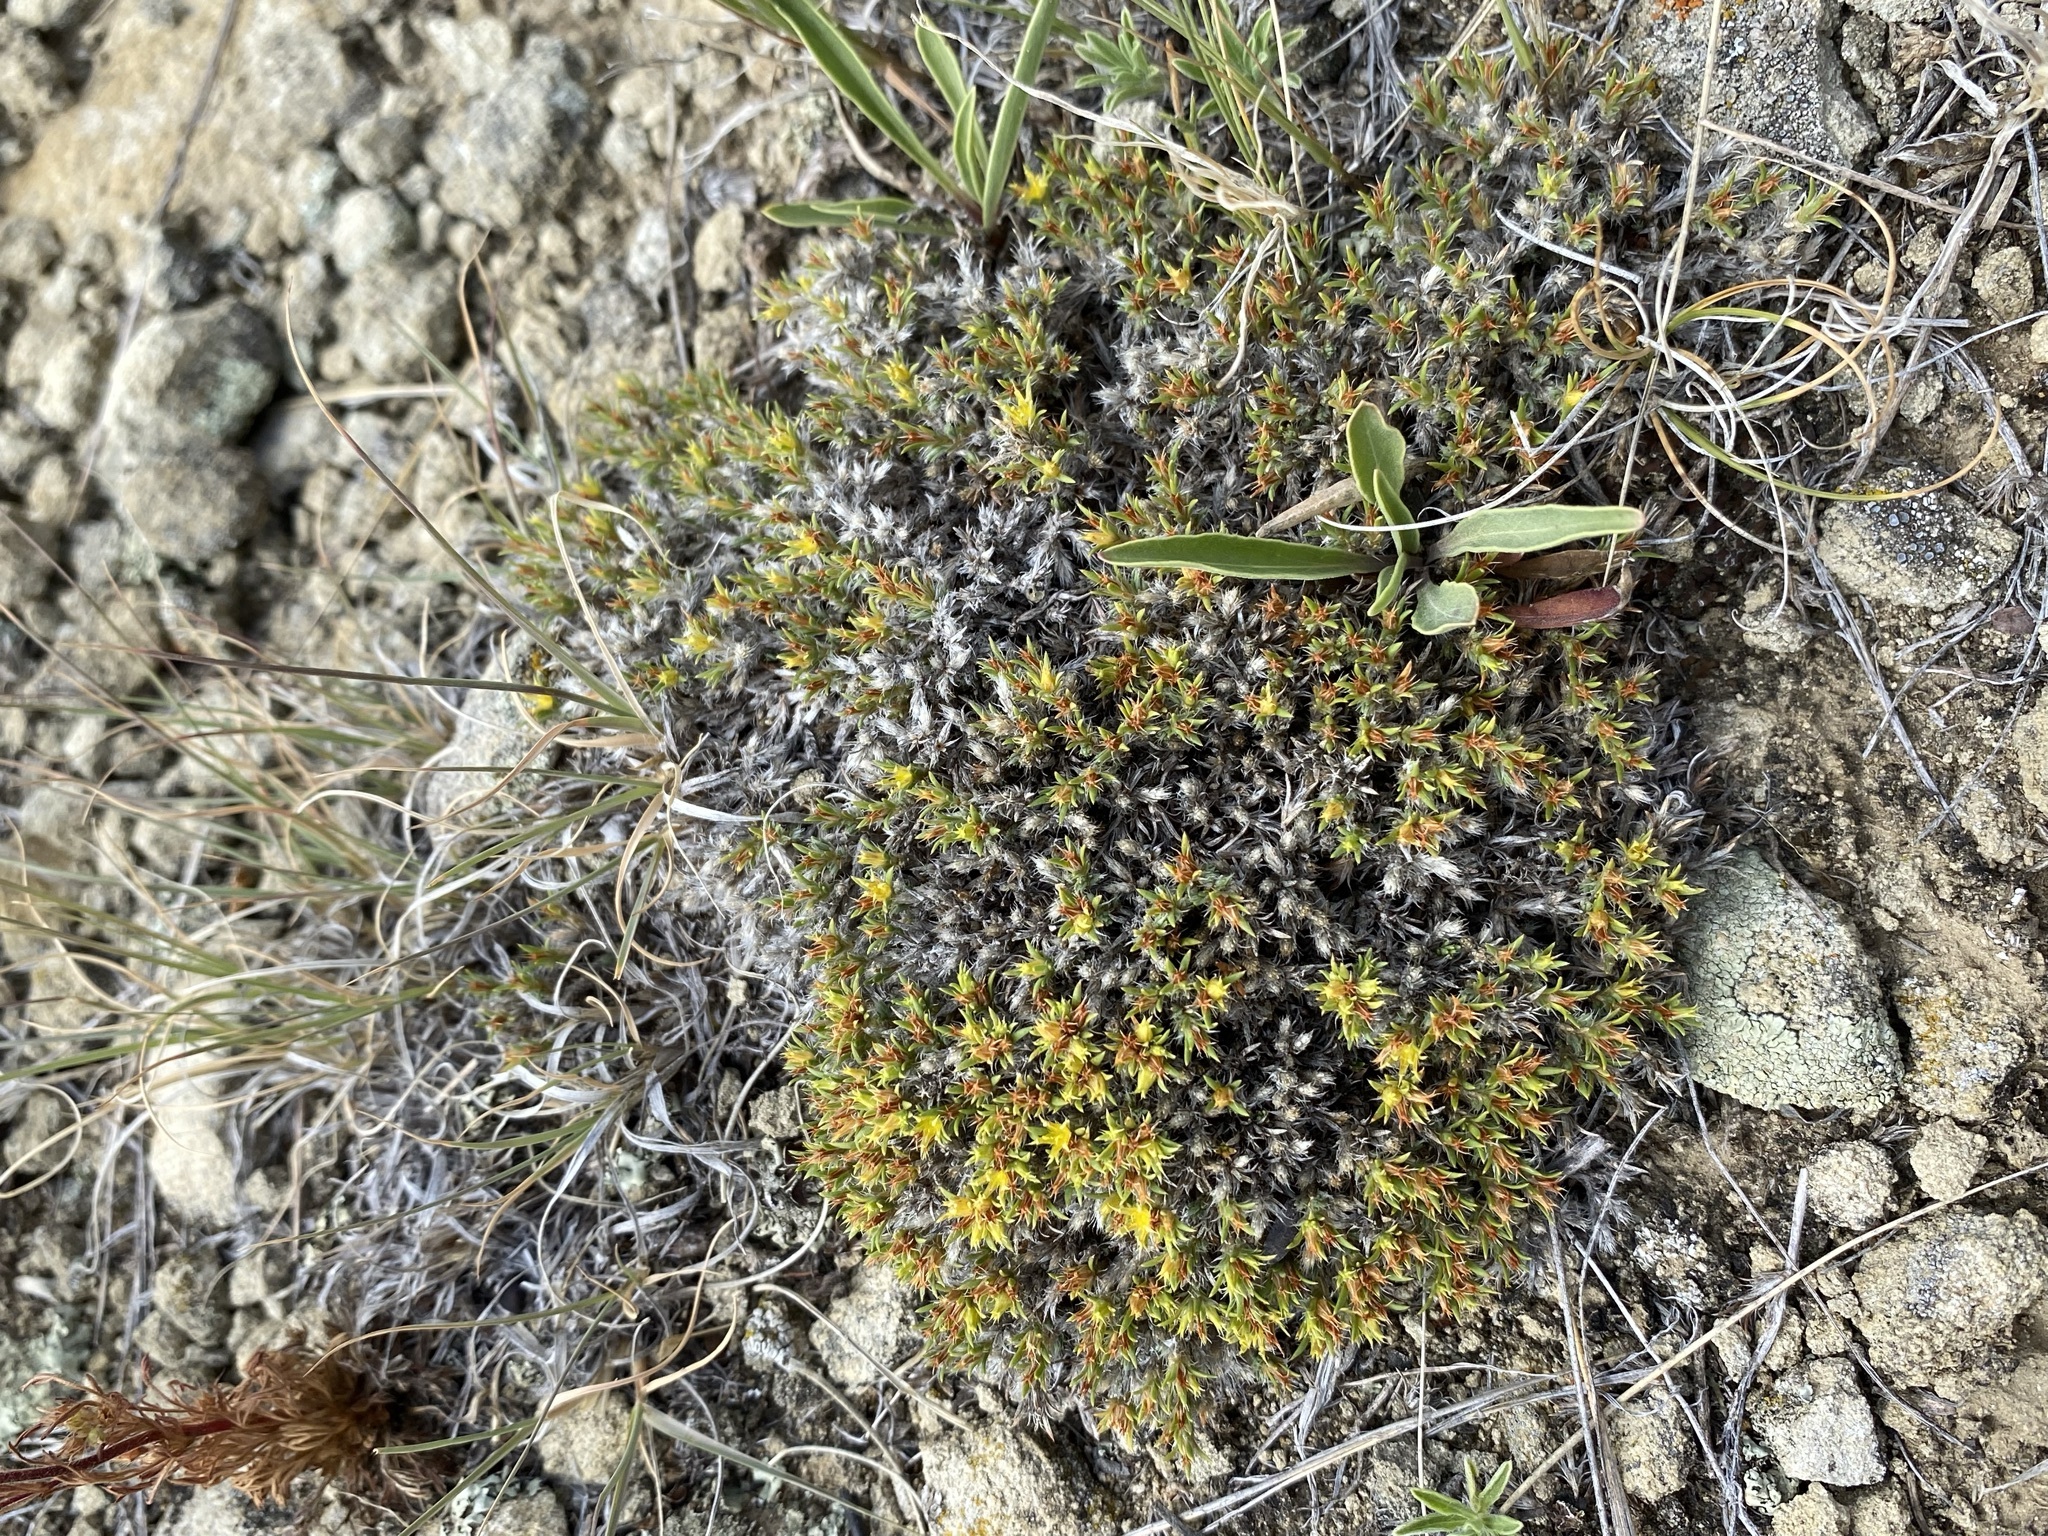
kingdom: Plantae
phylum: Tracheophyta
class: Magnoliopsida
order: Caryophyllales
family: Caryophyllaceae
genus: Paronychia
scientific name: Paronychia sessiliflora
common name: Creeping nailwort
